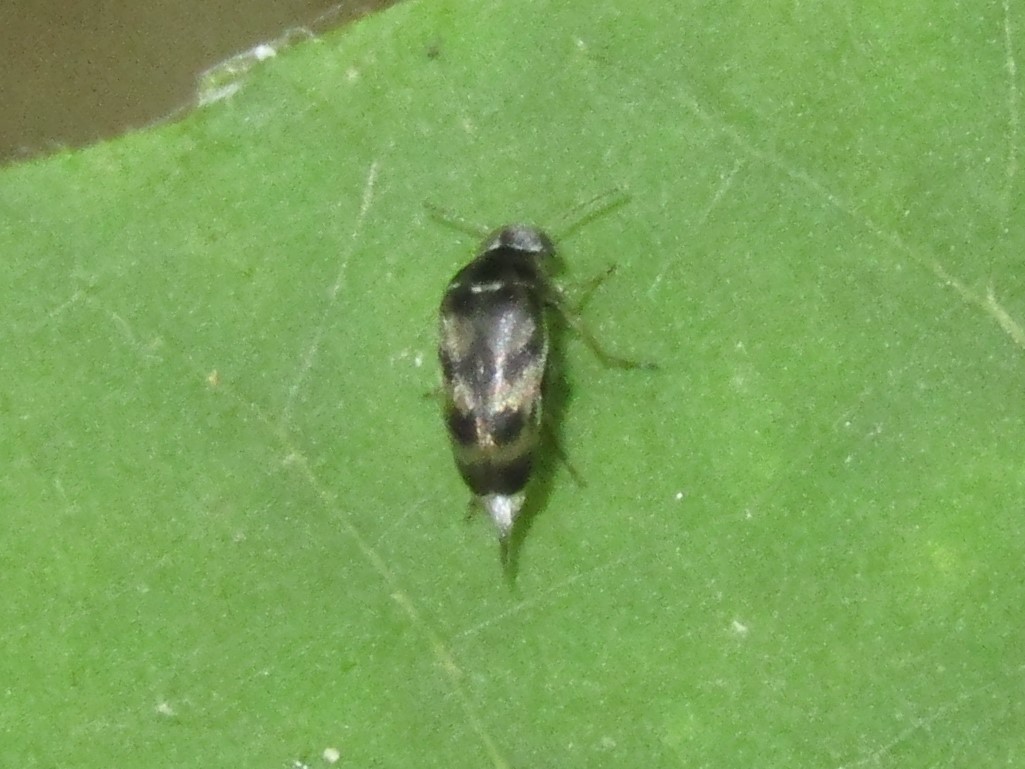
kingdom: Animalia
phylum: Arthropoda
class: Insecta
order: Coleoptera
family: Mordellidae
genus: Paramordellaria
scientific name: Paramordellaria triloba
